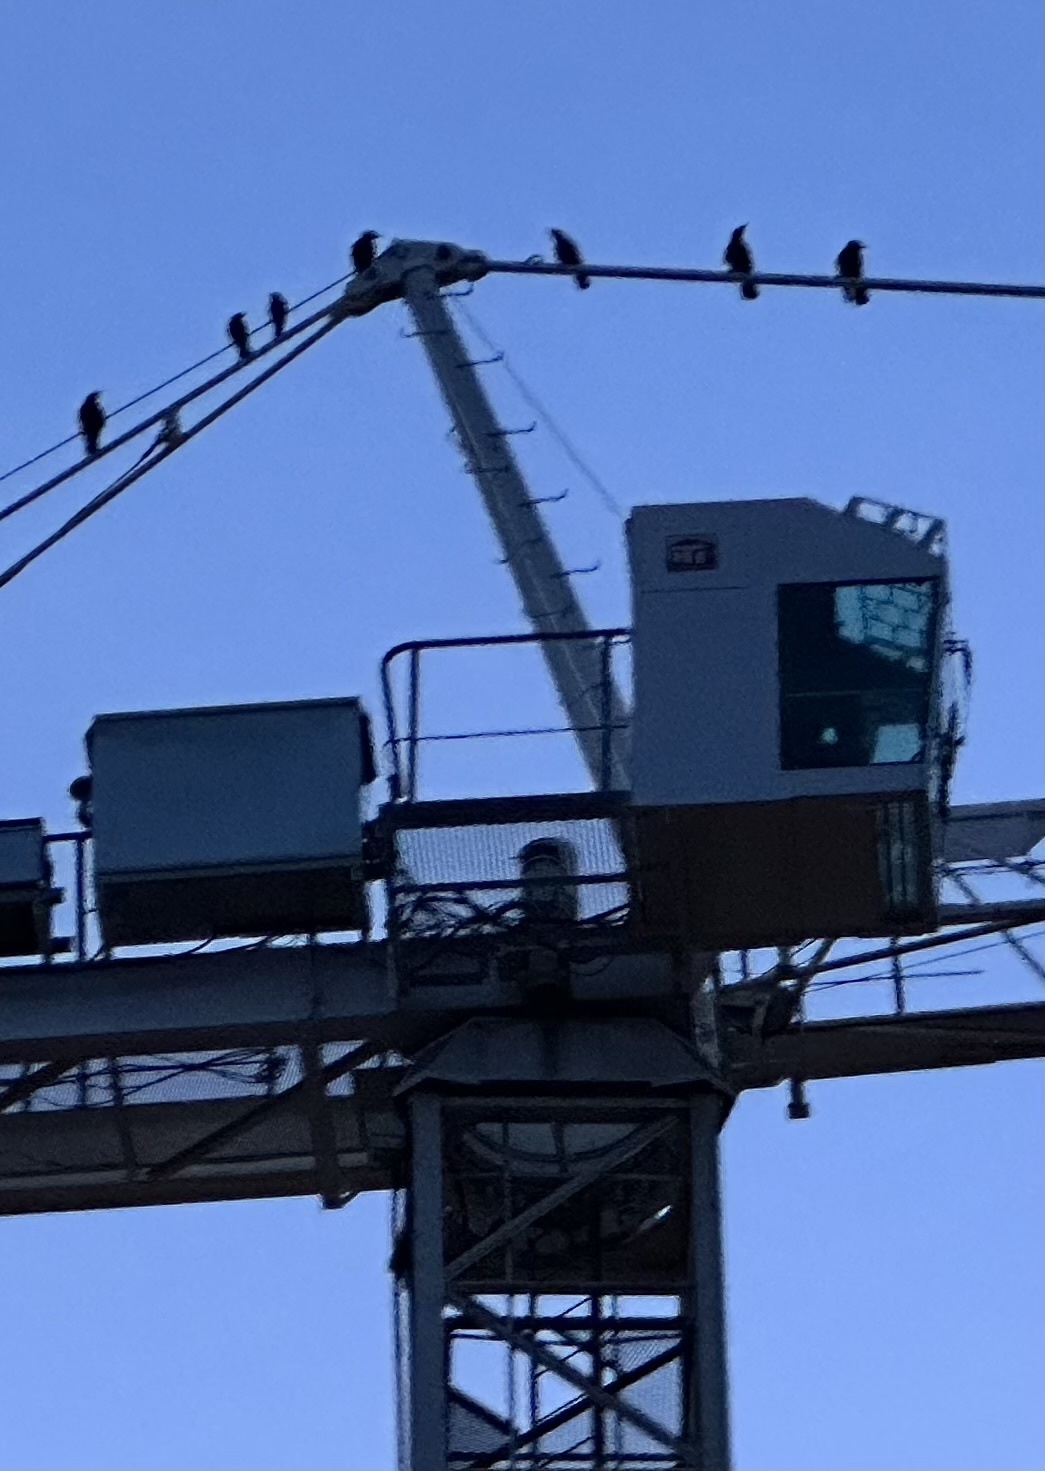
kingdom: Animalia
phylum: Chordata
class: Aves
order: Passeriformes
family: Corvidae
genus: Corvus
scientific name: Corvus corone
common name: Carrion crow
